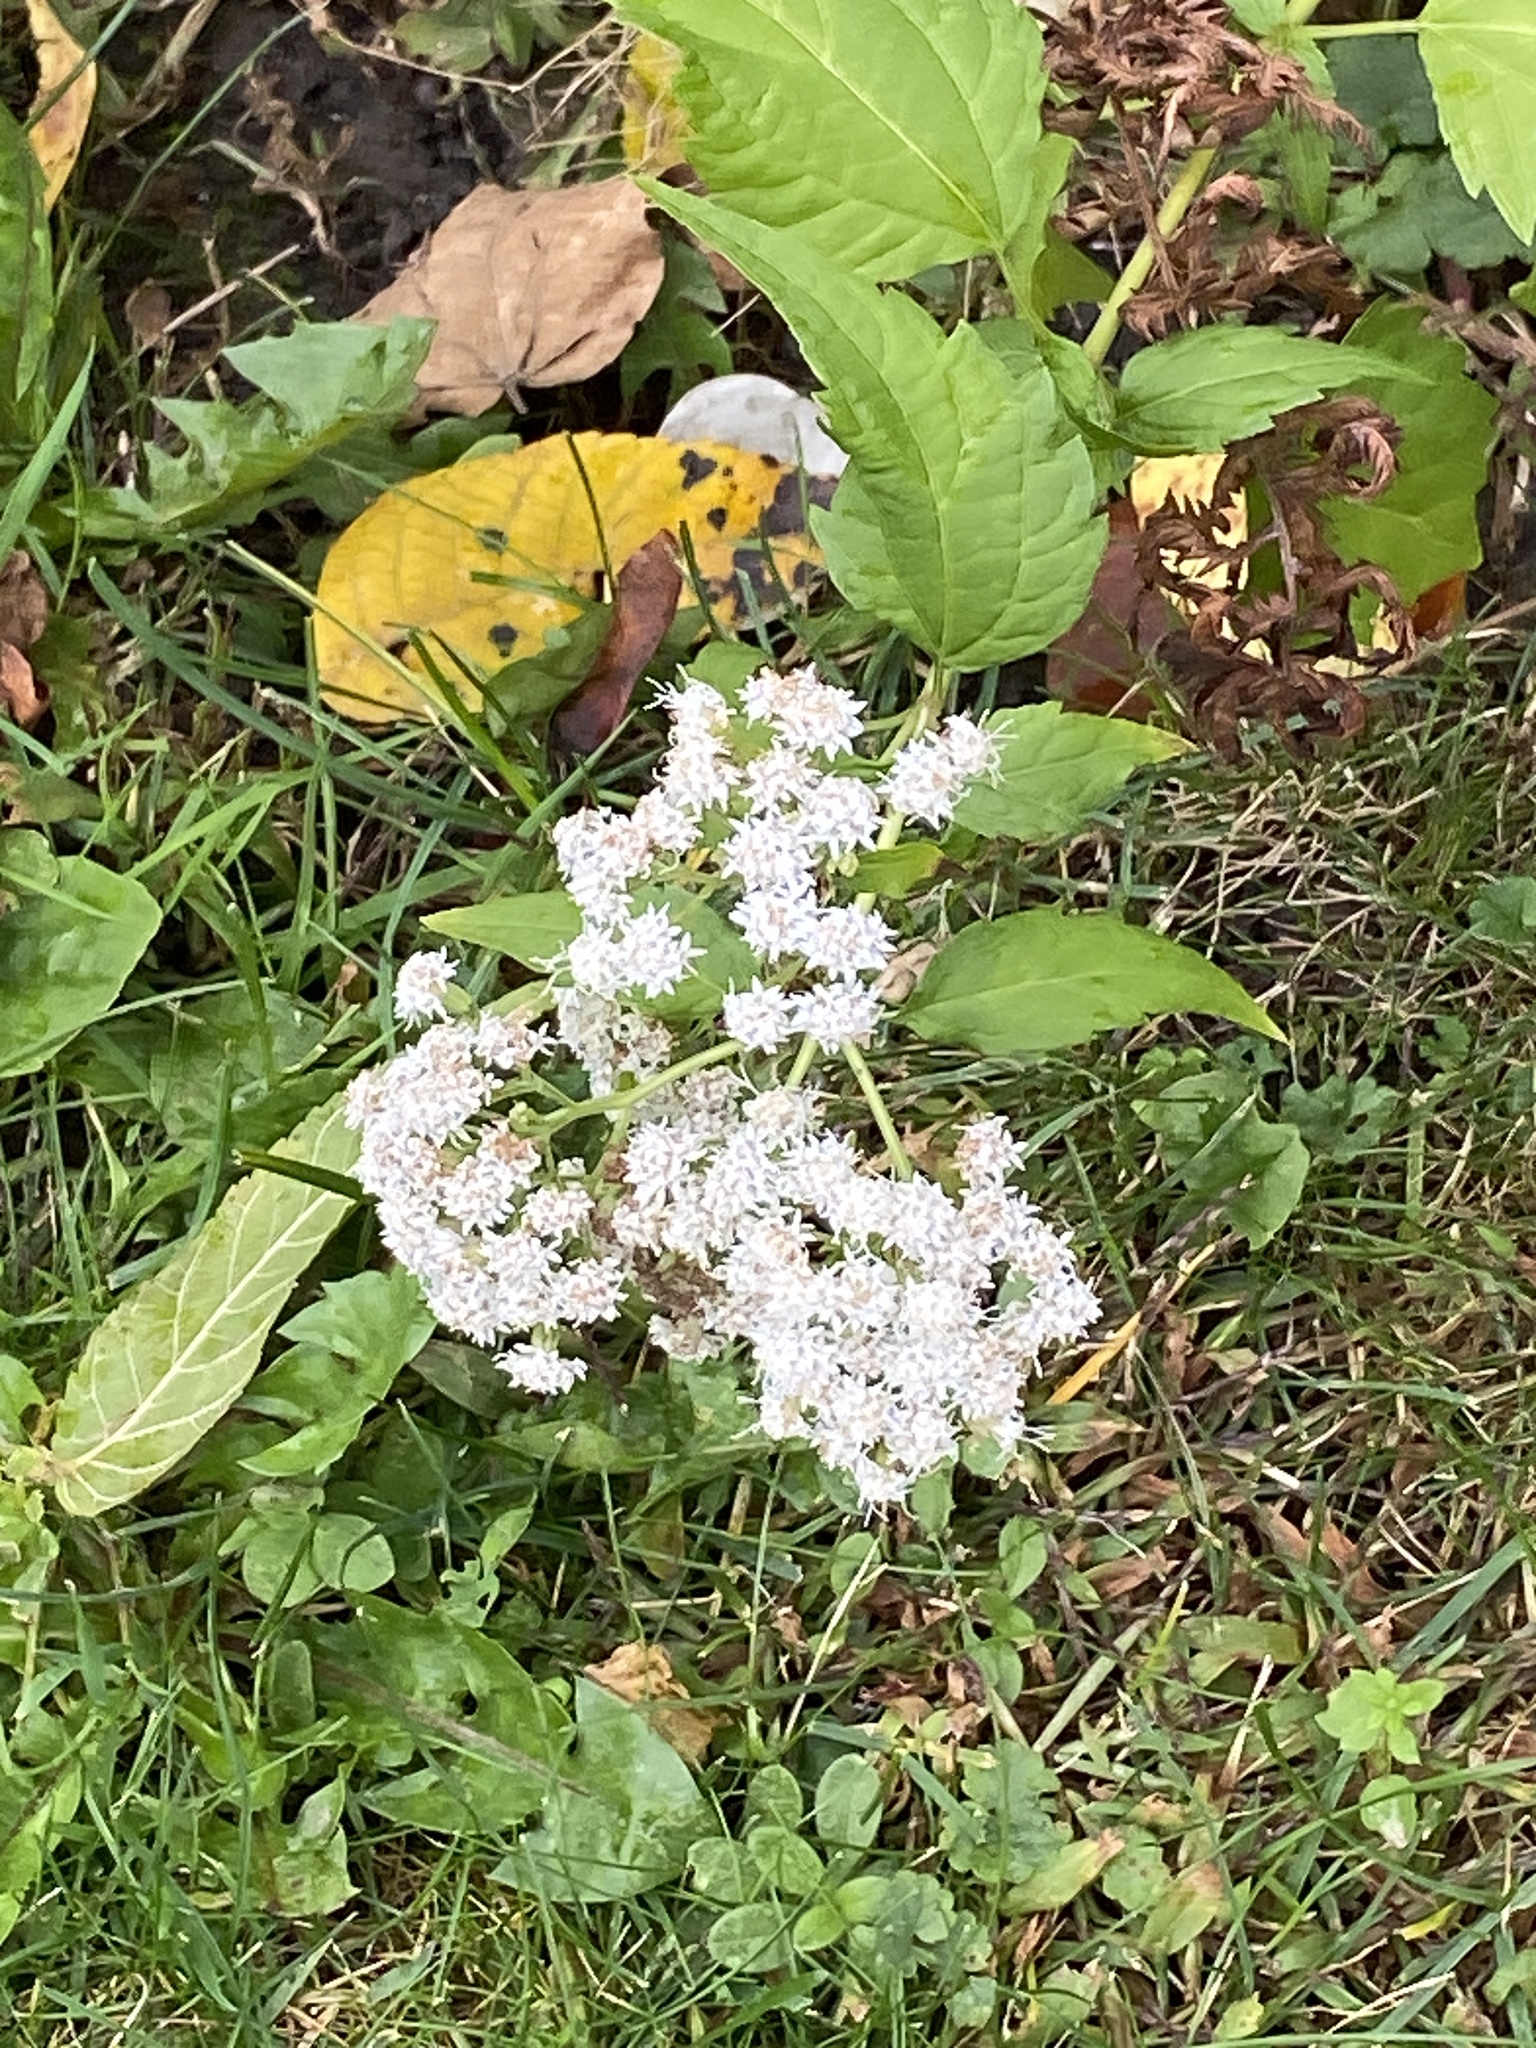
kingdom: Plantae
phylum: Tracheophyta
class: Magnoliopsida
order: Asterales
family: Asteraceae
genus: Ageratina
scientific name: Ageratina altissima
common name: White snakeroot
